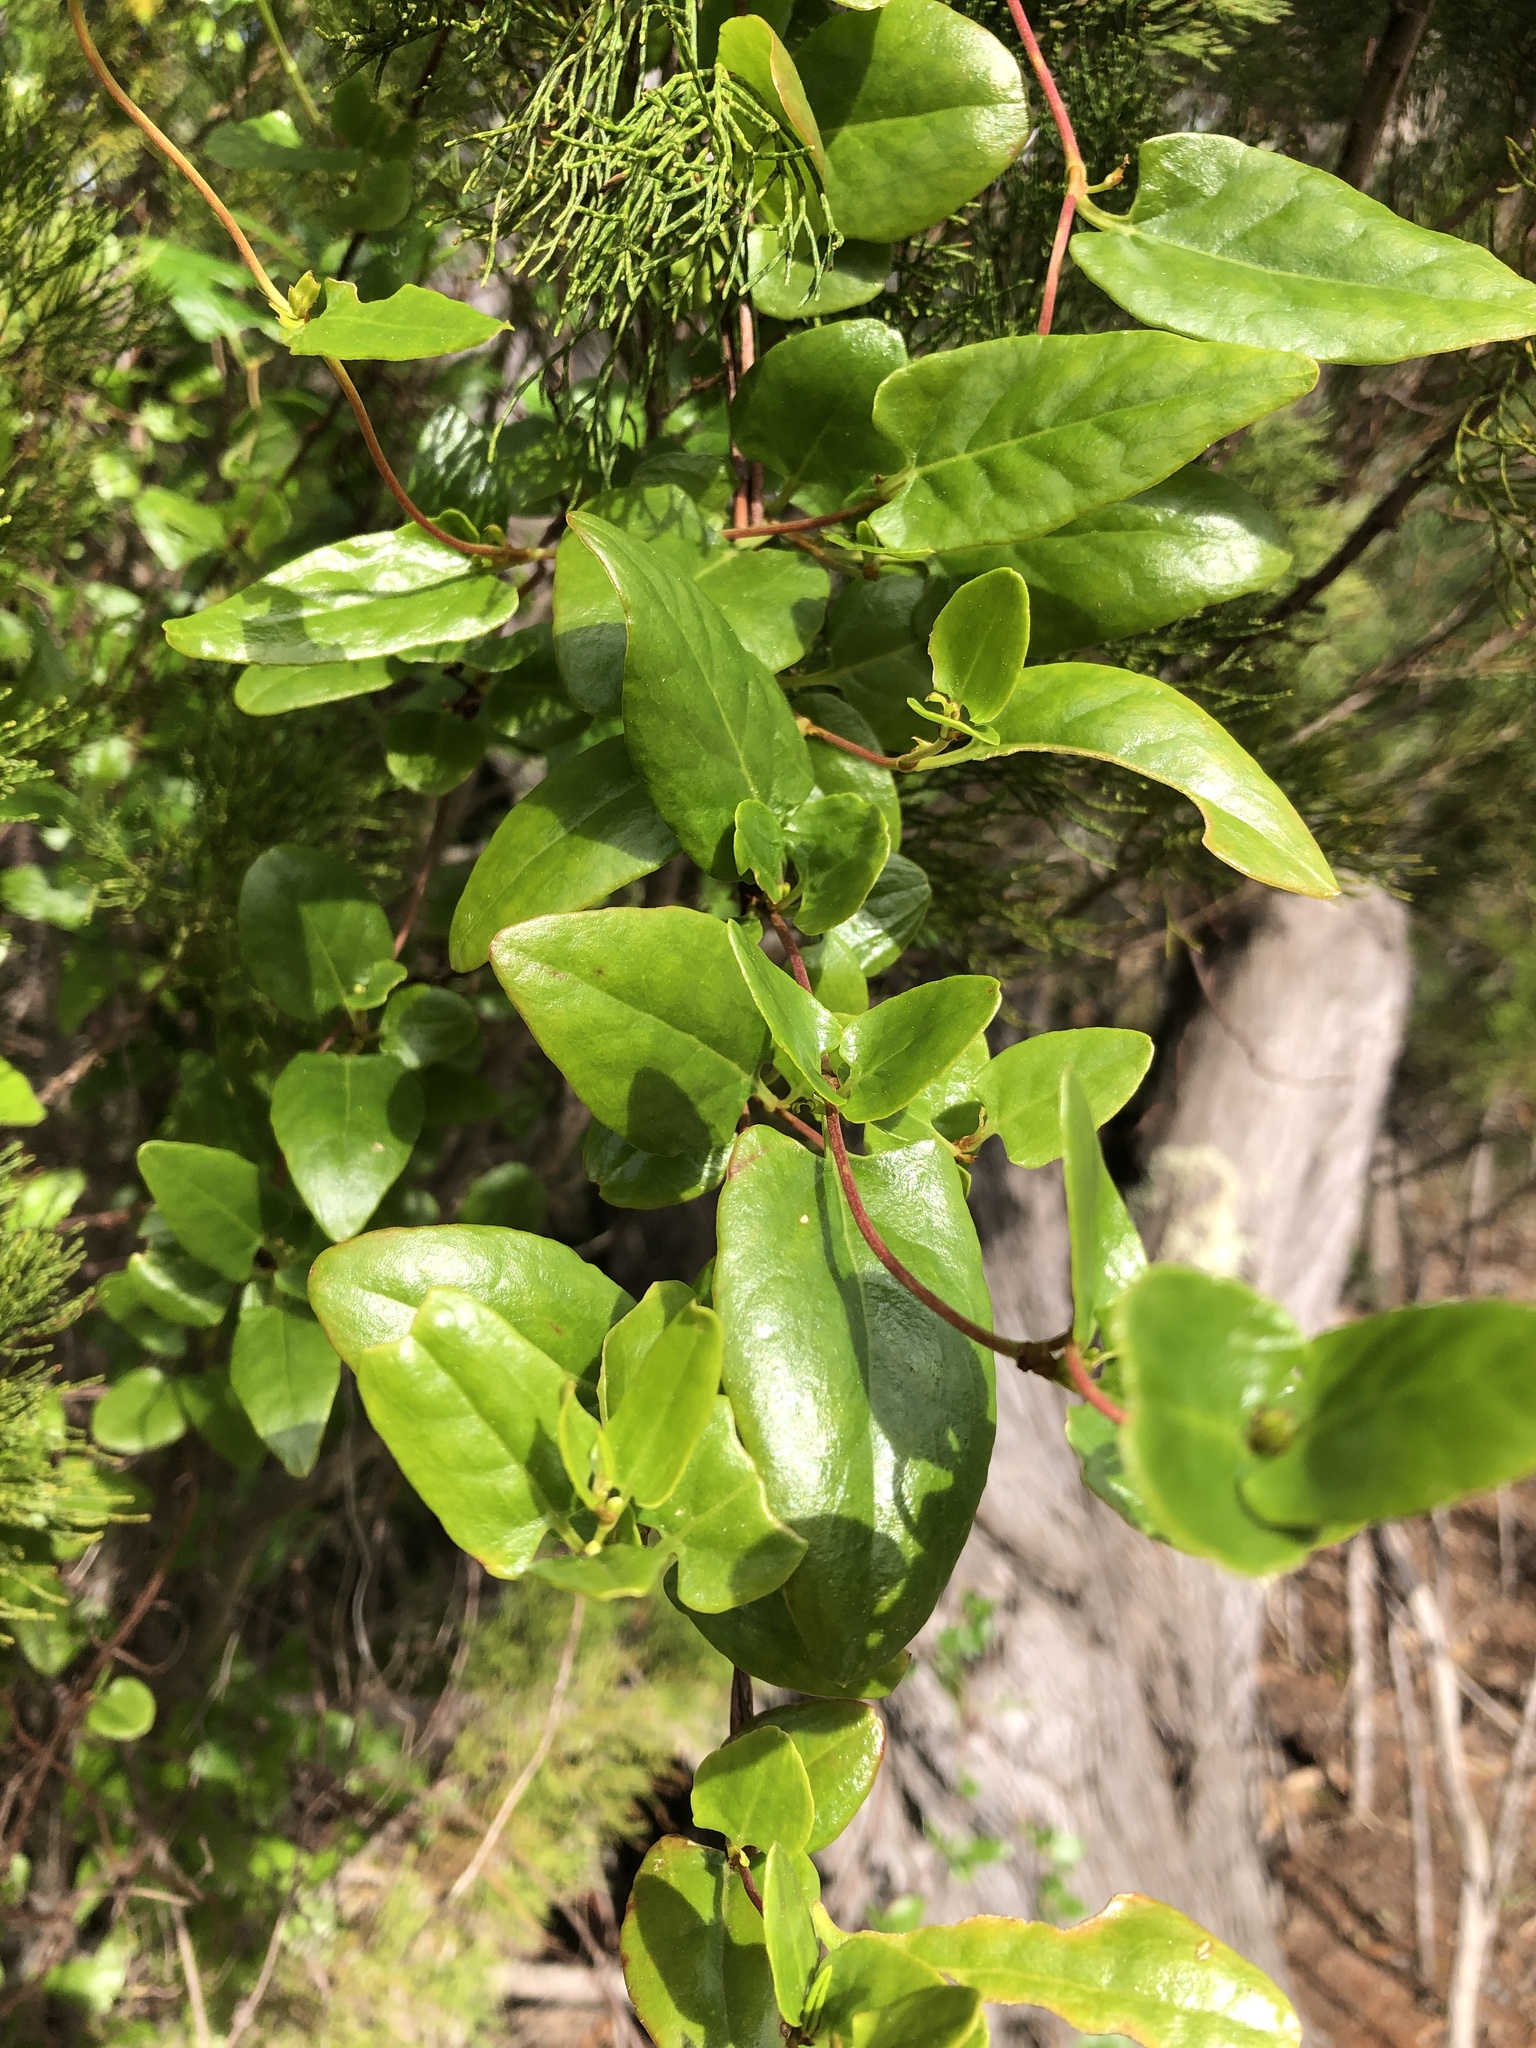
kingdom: Plantae
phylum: Tracheophyta
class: Magnoliopsida
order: Caryophyllales
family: Polygonaceae
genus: Muehlenbeckia
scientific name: Muehlenbeckia gunnii
